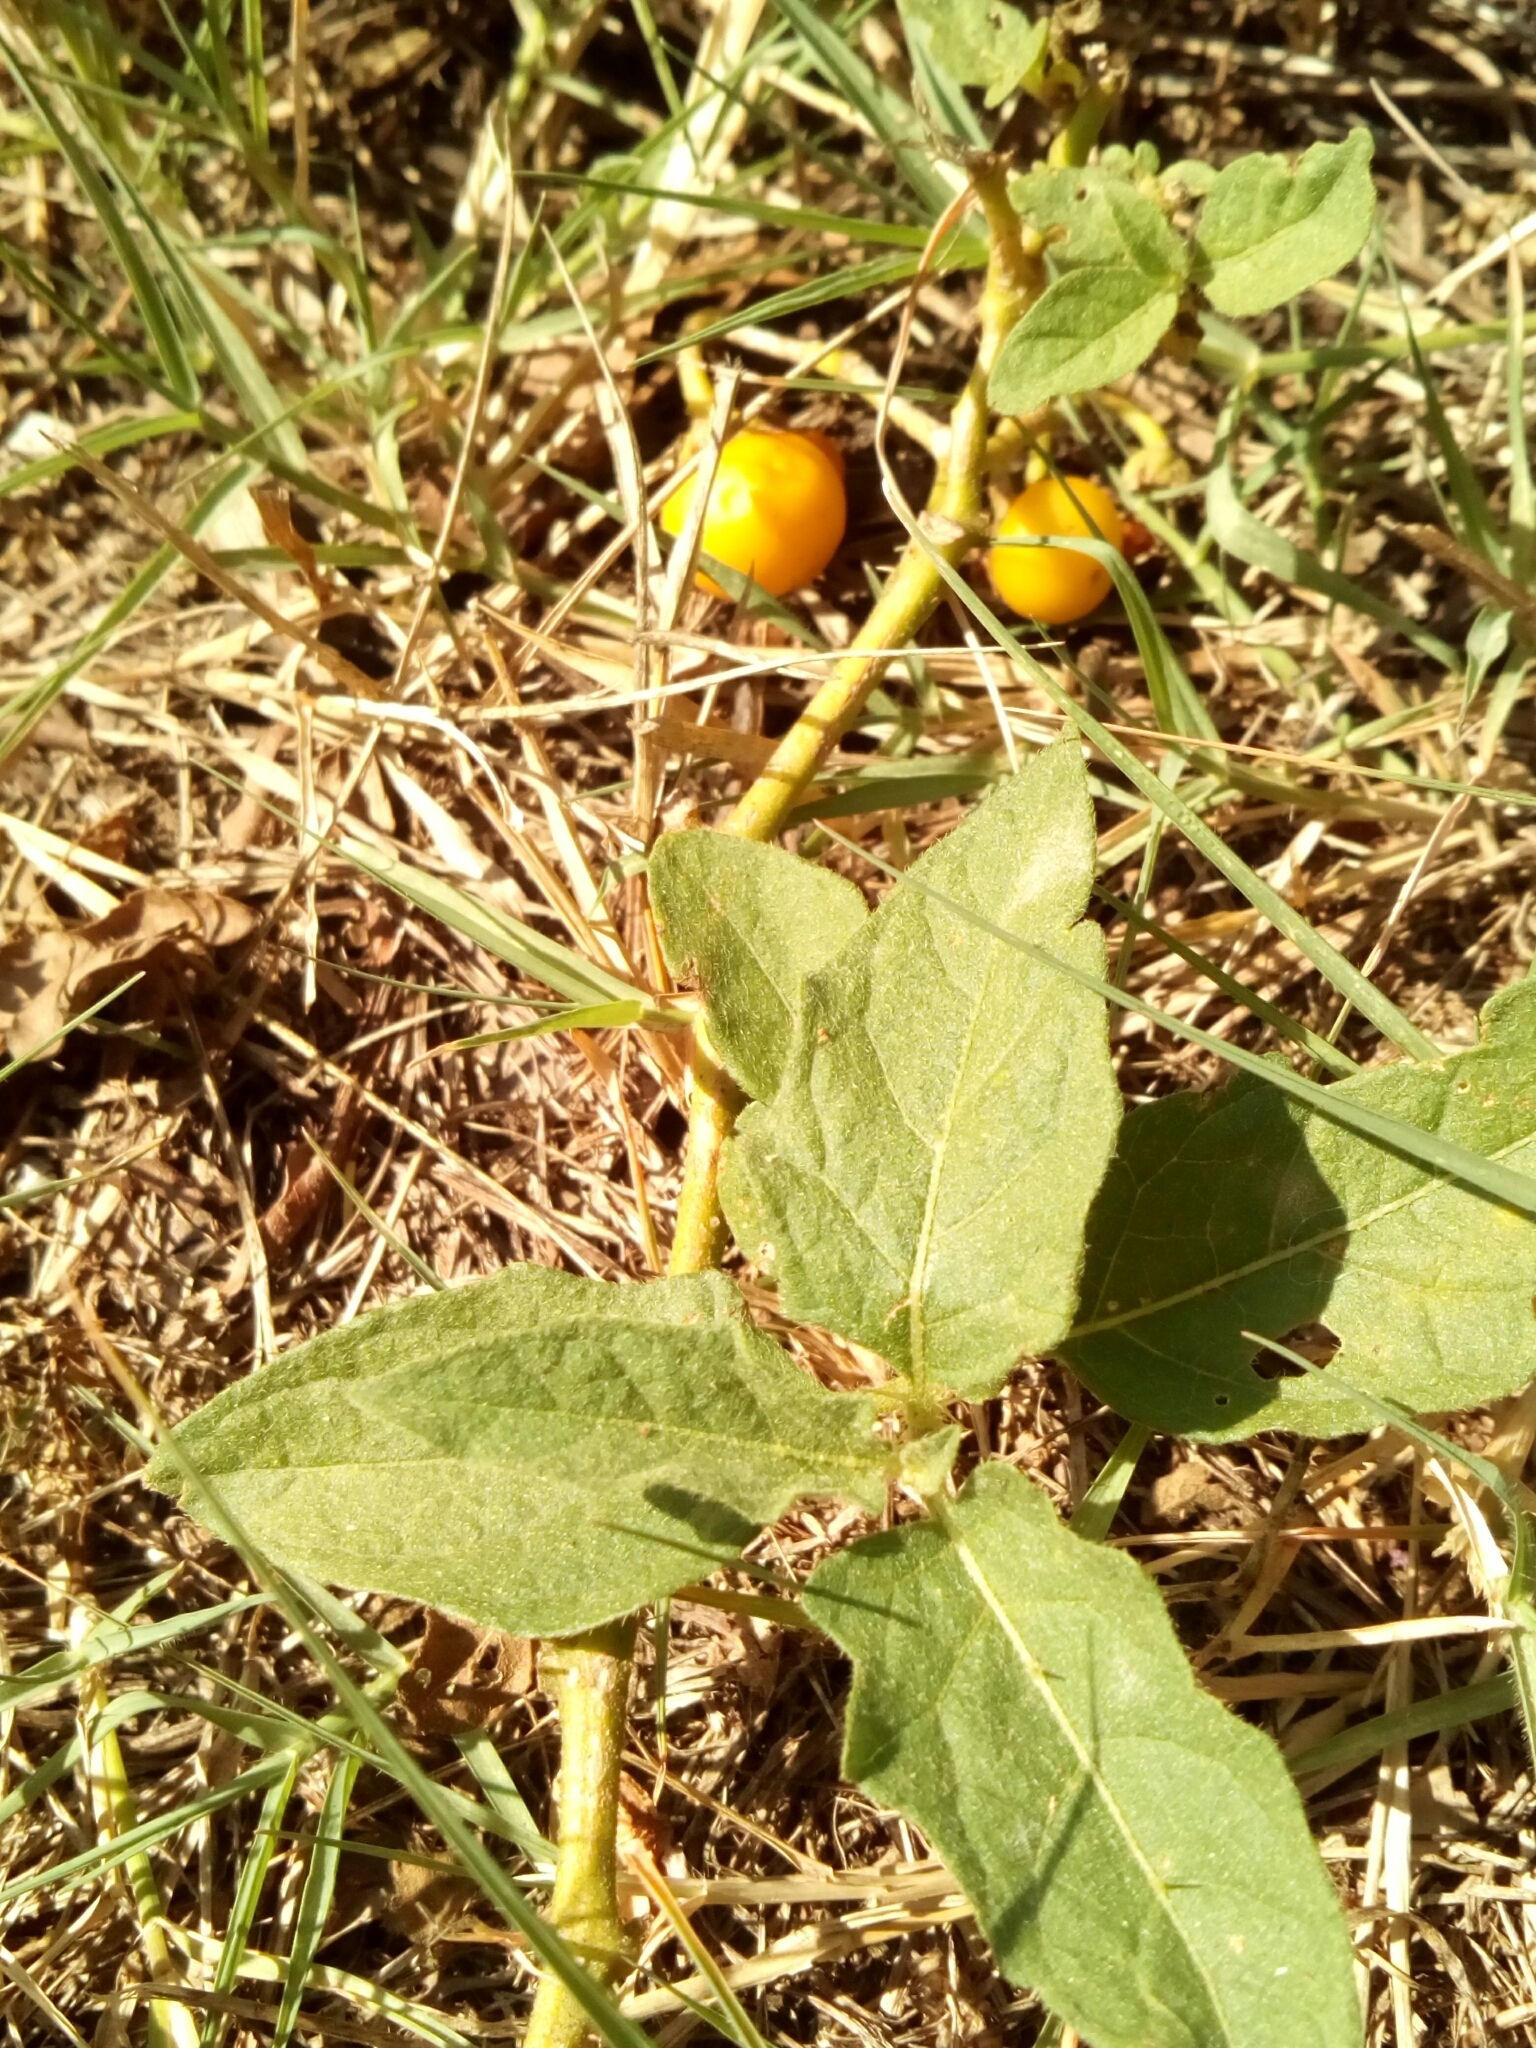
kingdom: Plantae
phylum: Tracheophyta
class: Magnoliopsida
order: Solanales
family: Solanaceae
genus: Solanum
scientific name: Solanum carolinense
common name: Horse-nettle
